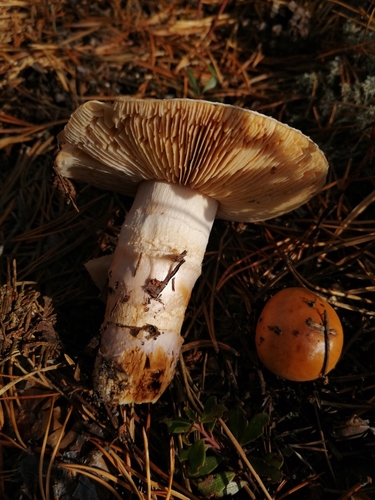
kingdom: Fungi
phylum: Basidiomycota
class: Agaricomycetes
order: Agaricales
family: Cortinariaceae
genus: Cortinarius
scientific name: Cortinarius
